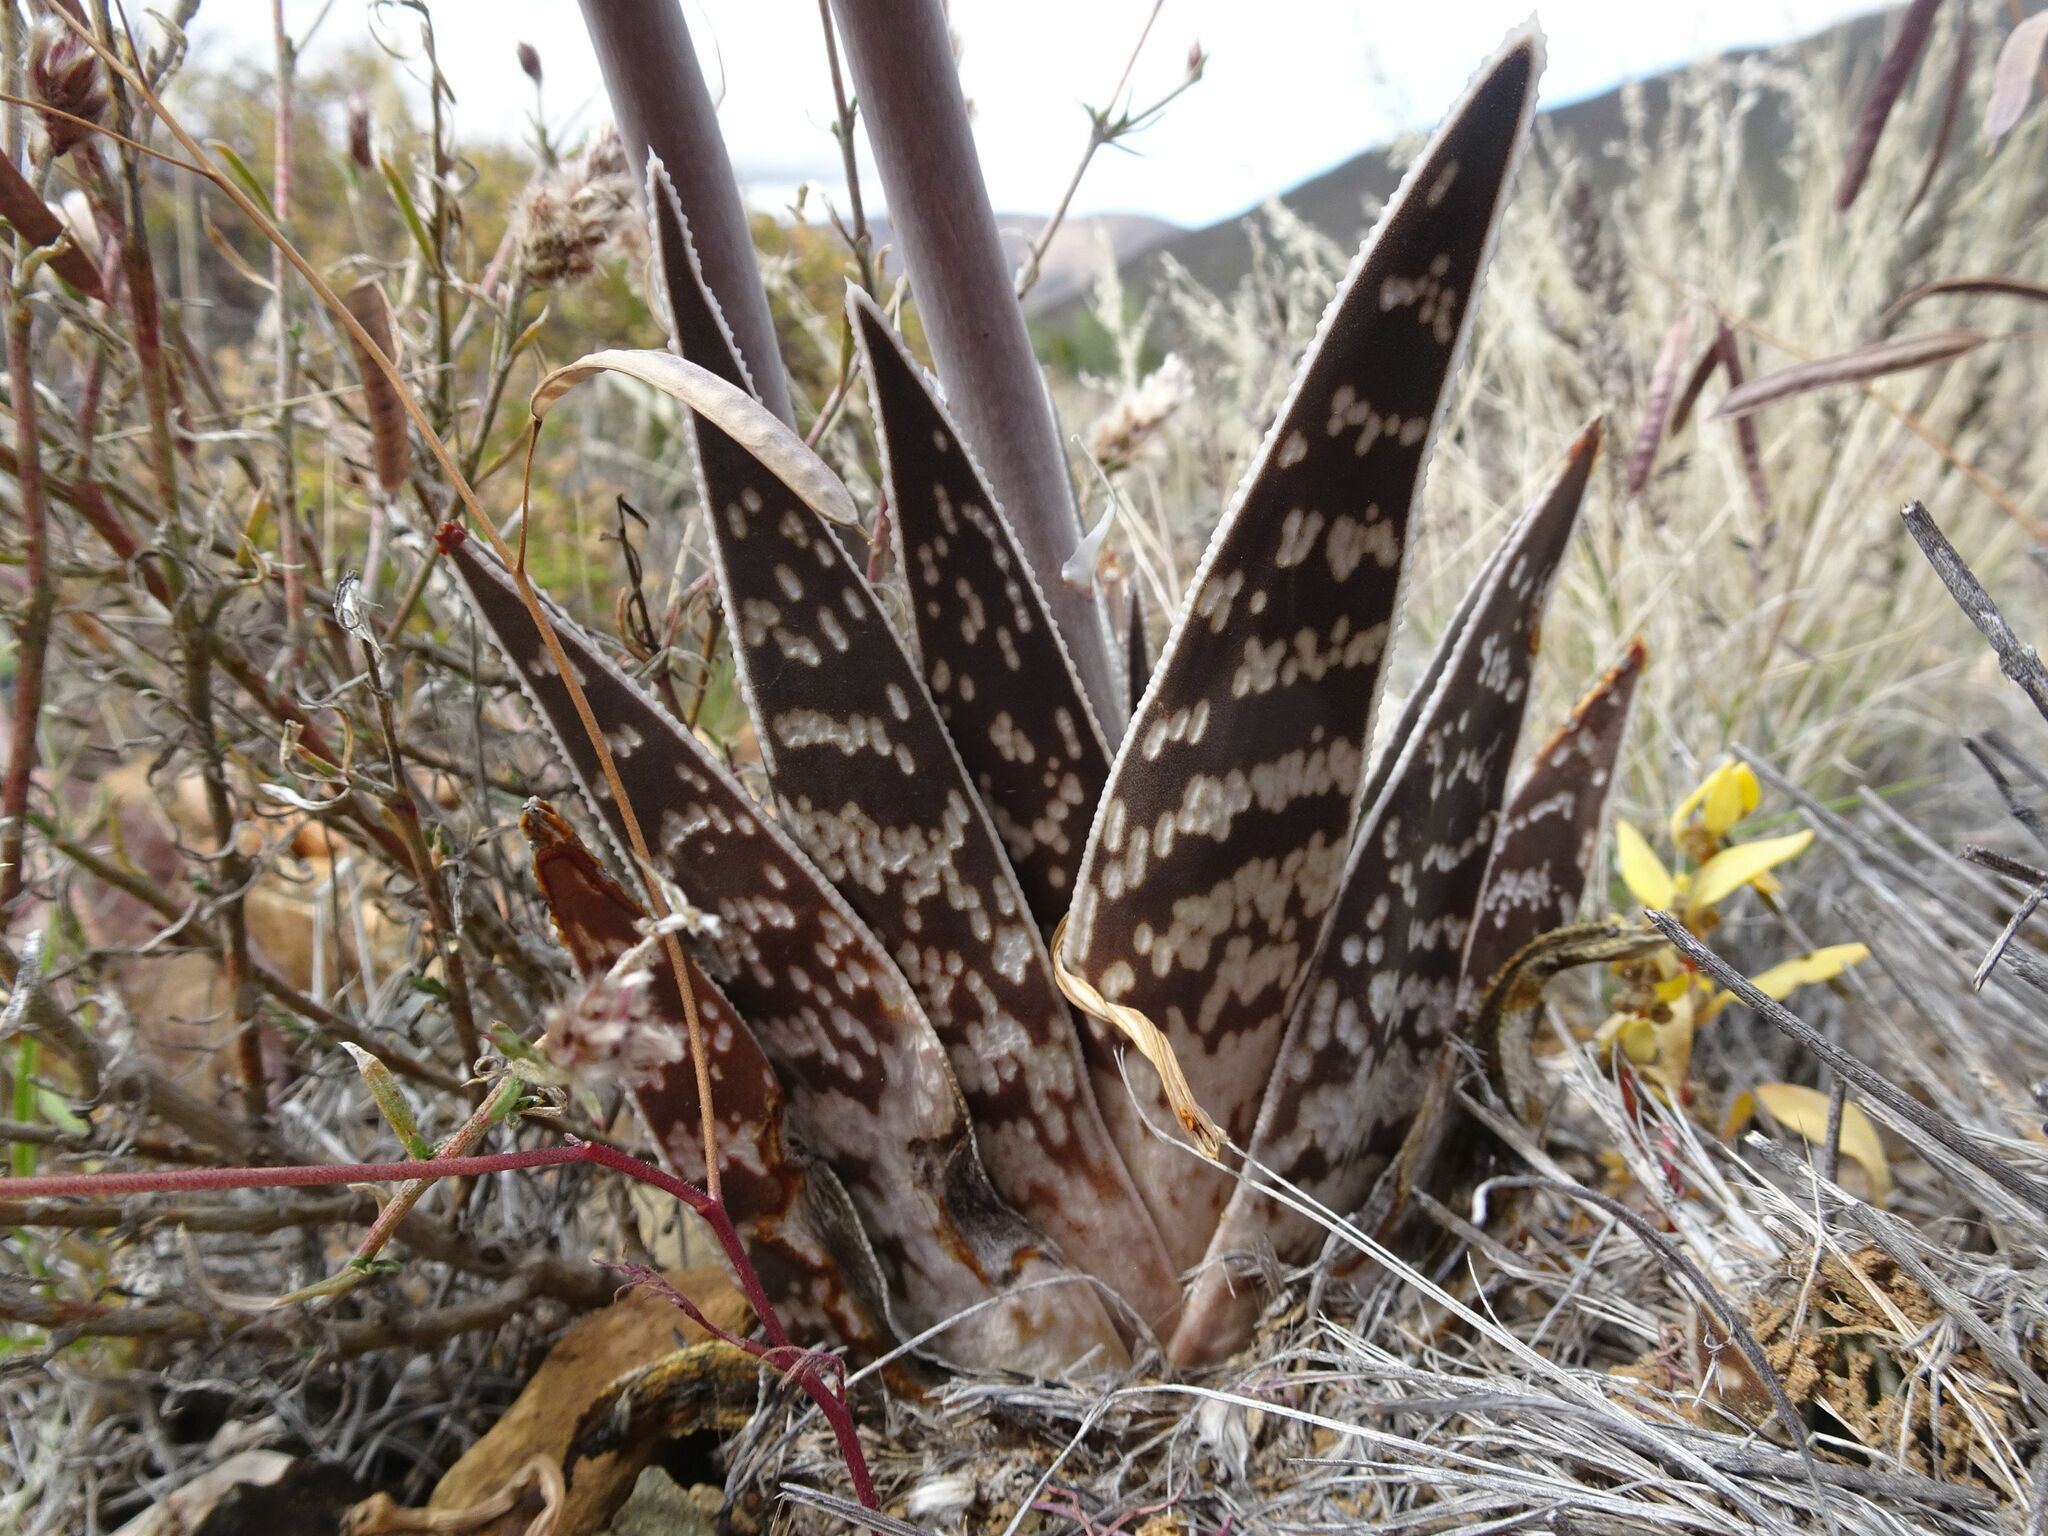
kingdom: Plantae
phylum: Tracheophyta
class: Liliopsida
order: Asparagales
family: Asphodelaceae
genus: Gonialoe
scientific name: Gonialoe variegata
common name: Aloe variegata
